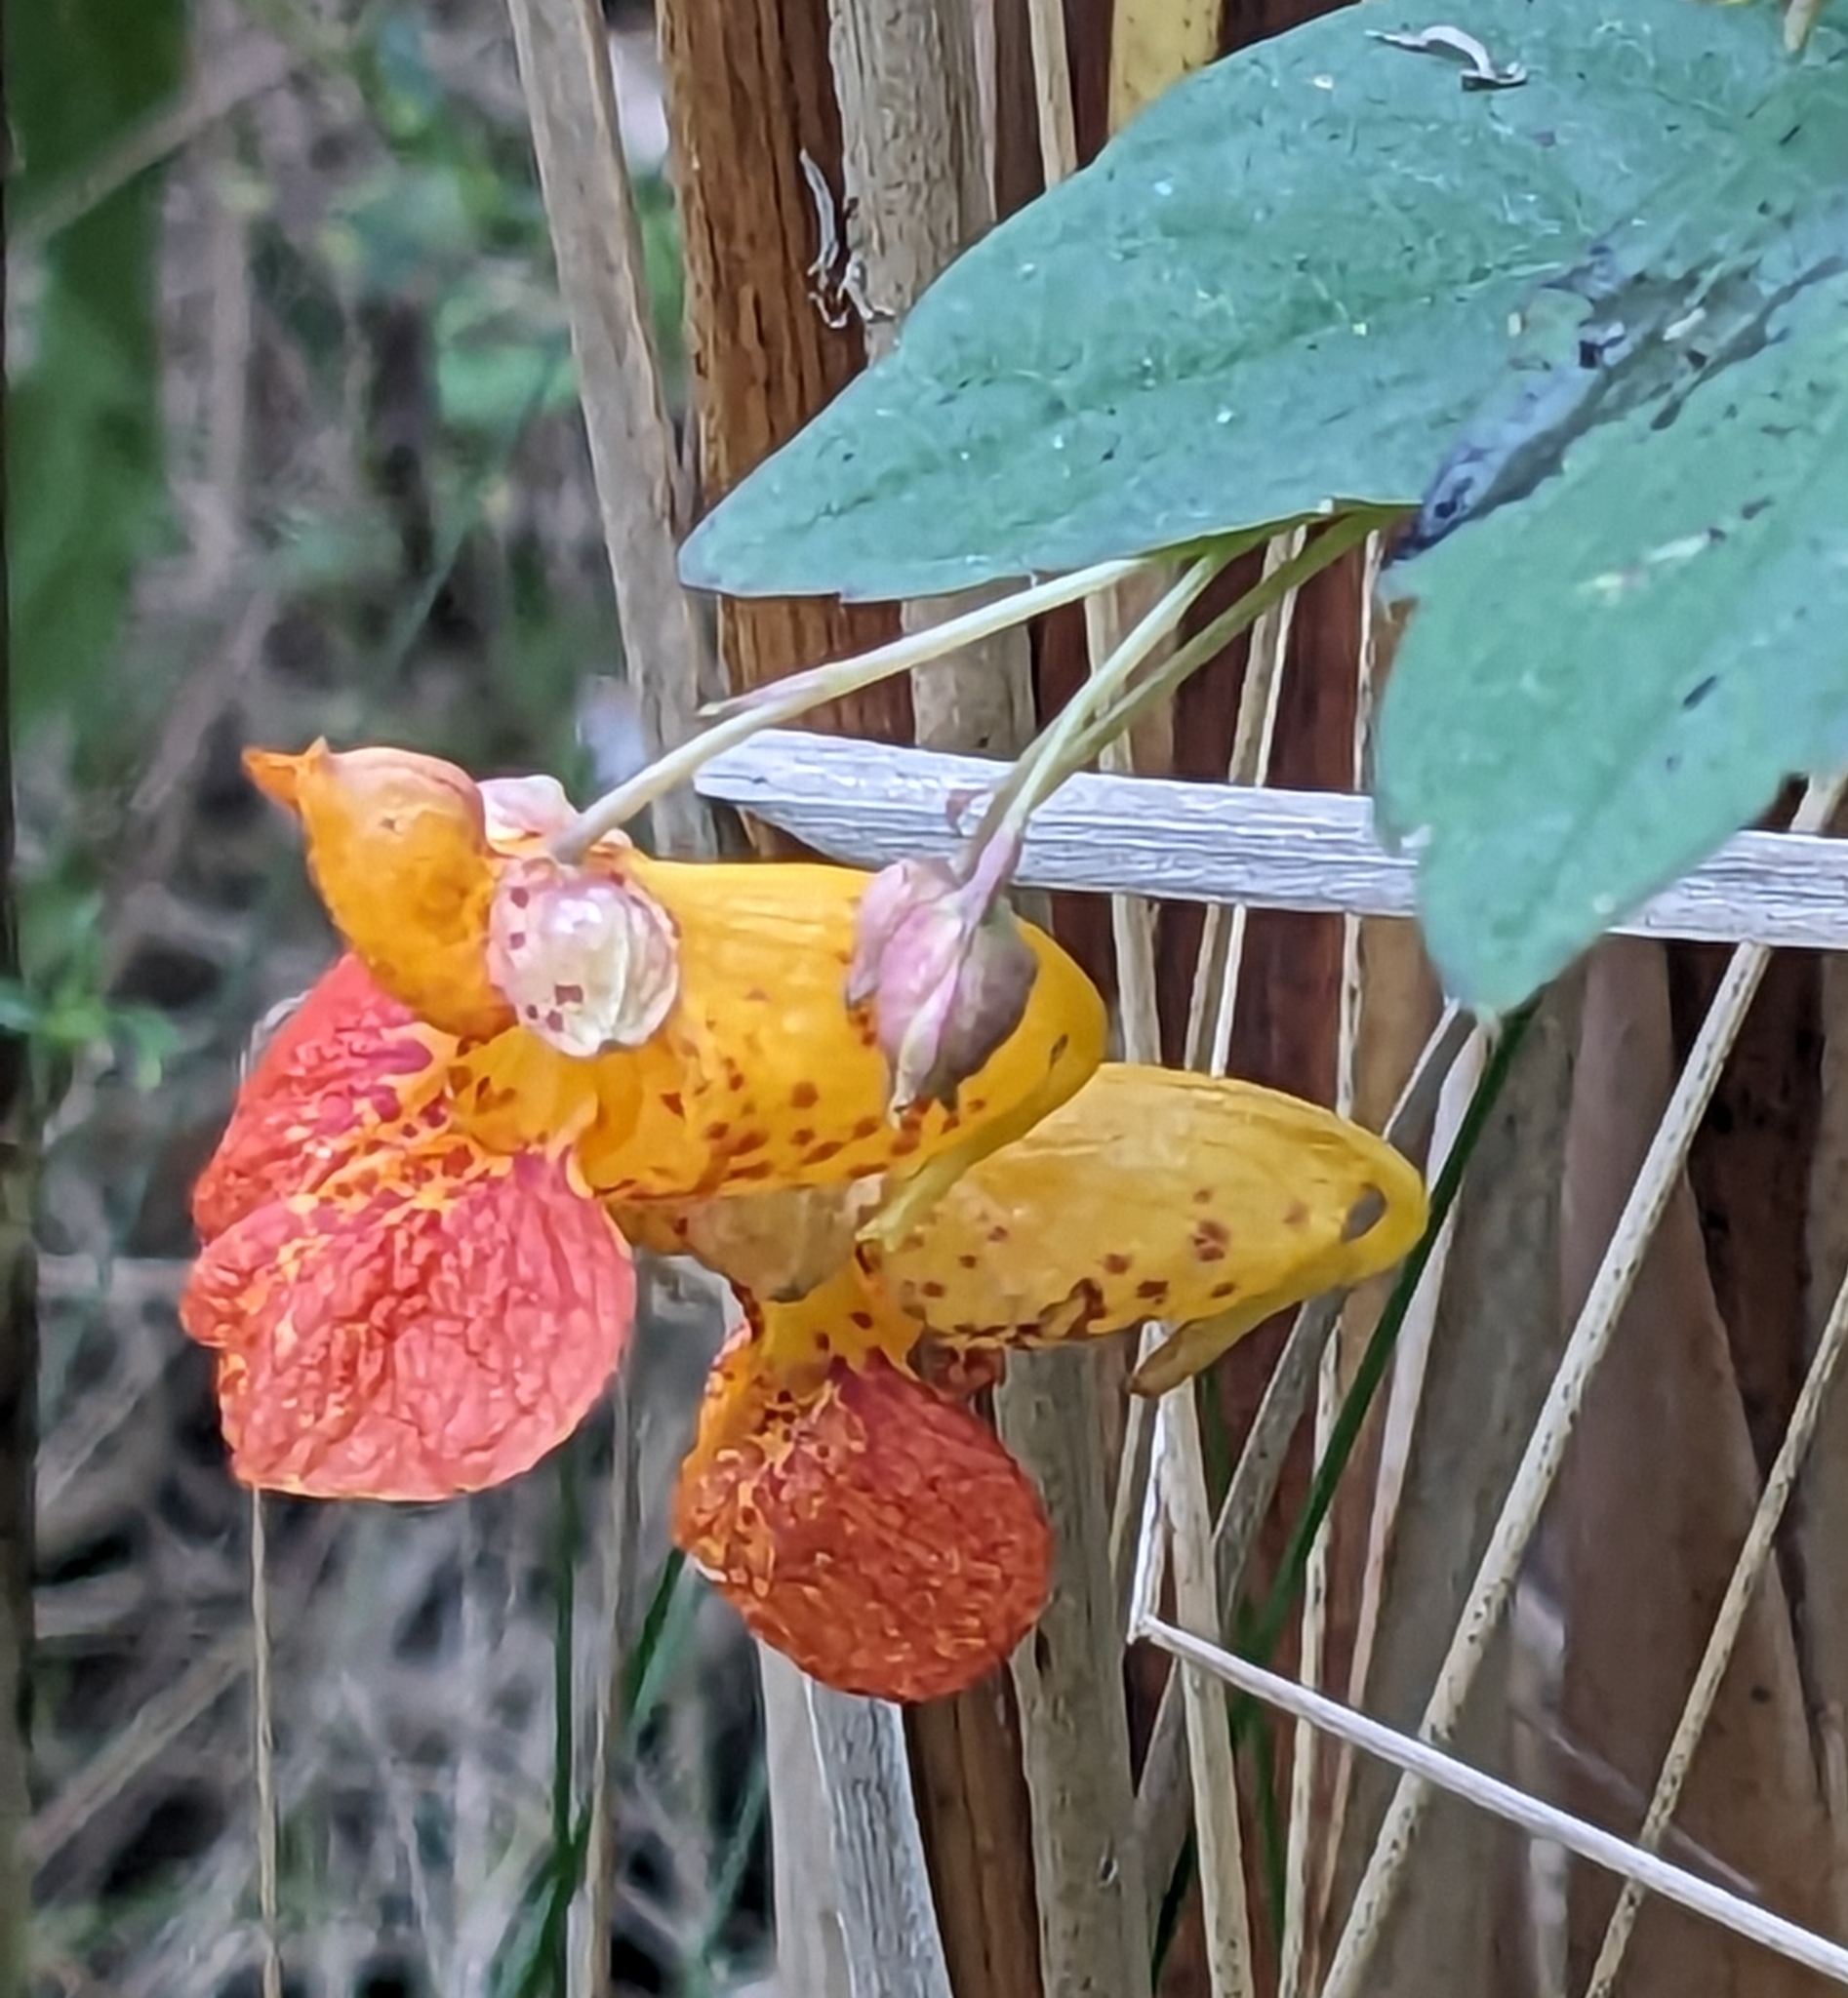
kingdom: Plantae
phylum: Tracheophyta
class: Magnoliopsida
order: Ericales
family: Balsaminaceae
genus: Impatiens
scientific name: Impatiens capensis
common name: Orange balsam
